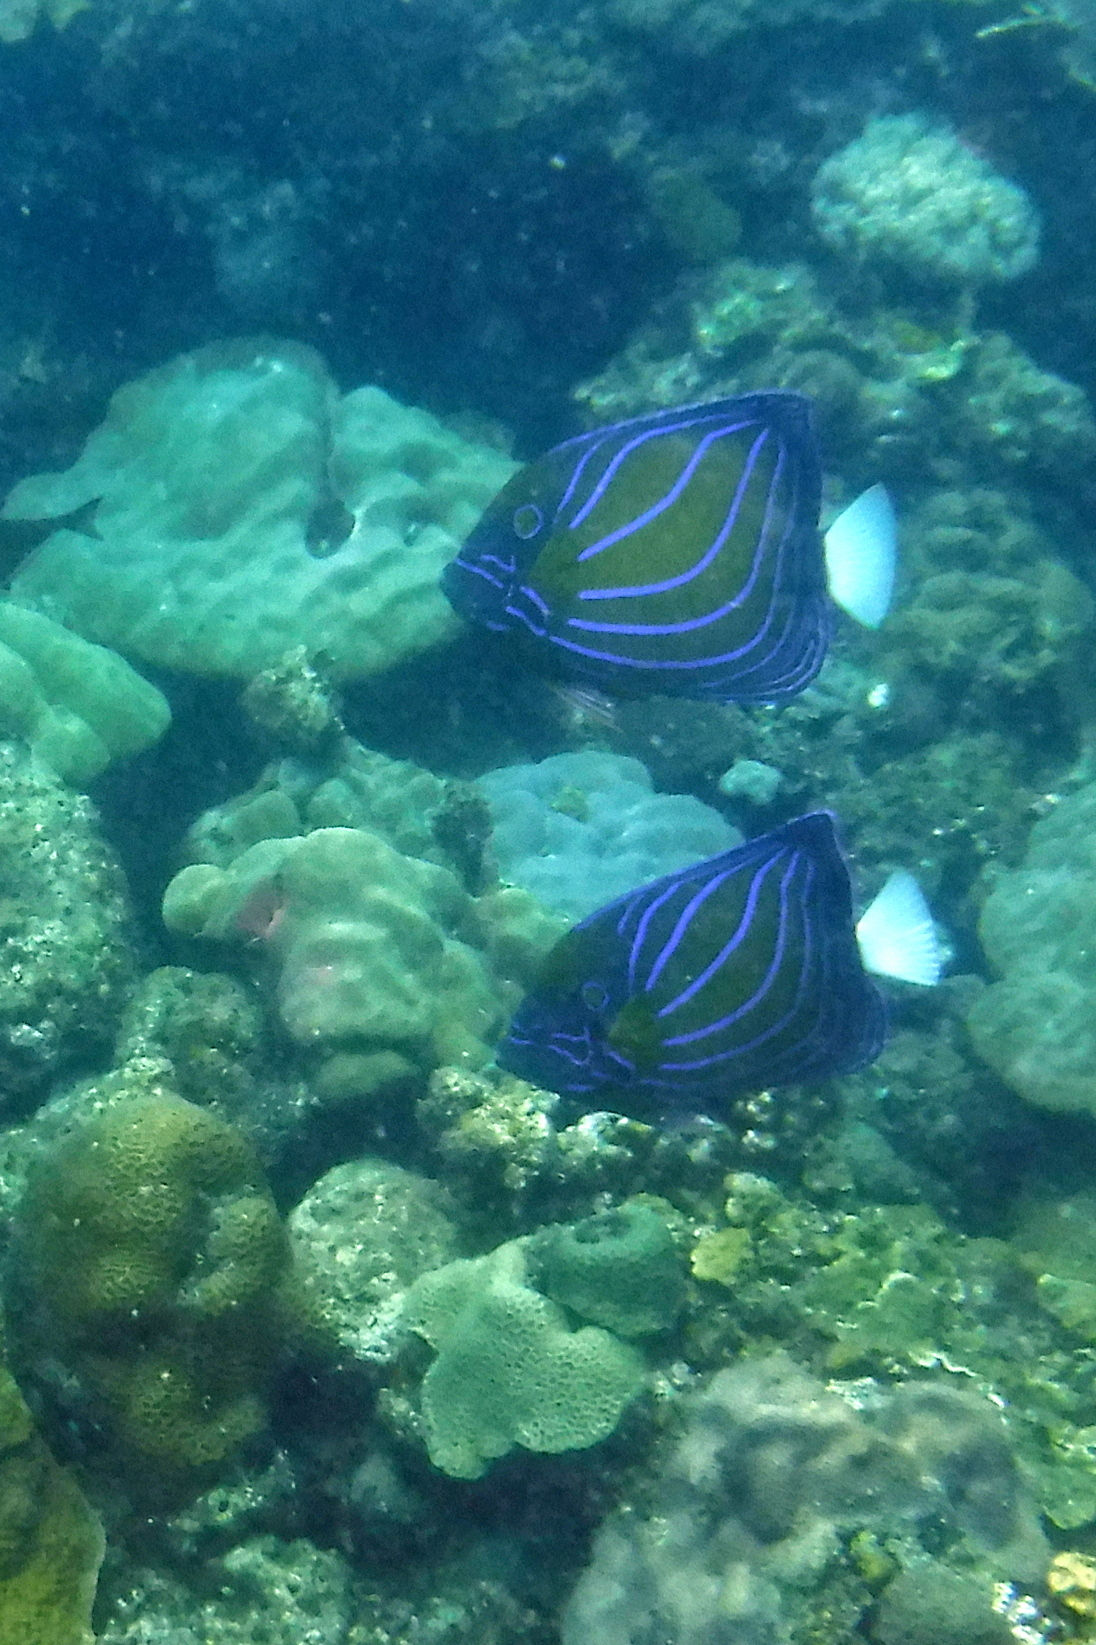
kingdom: Animalia
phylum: Chordata
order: Perciformes
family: Pomacanthidae
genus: Pomacanthus
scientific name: Pomacanthus annularis
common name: Bluering angelfish
